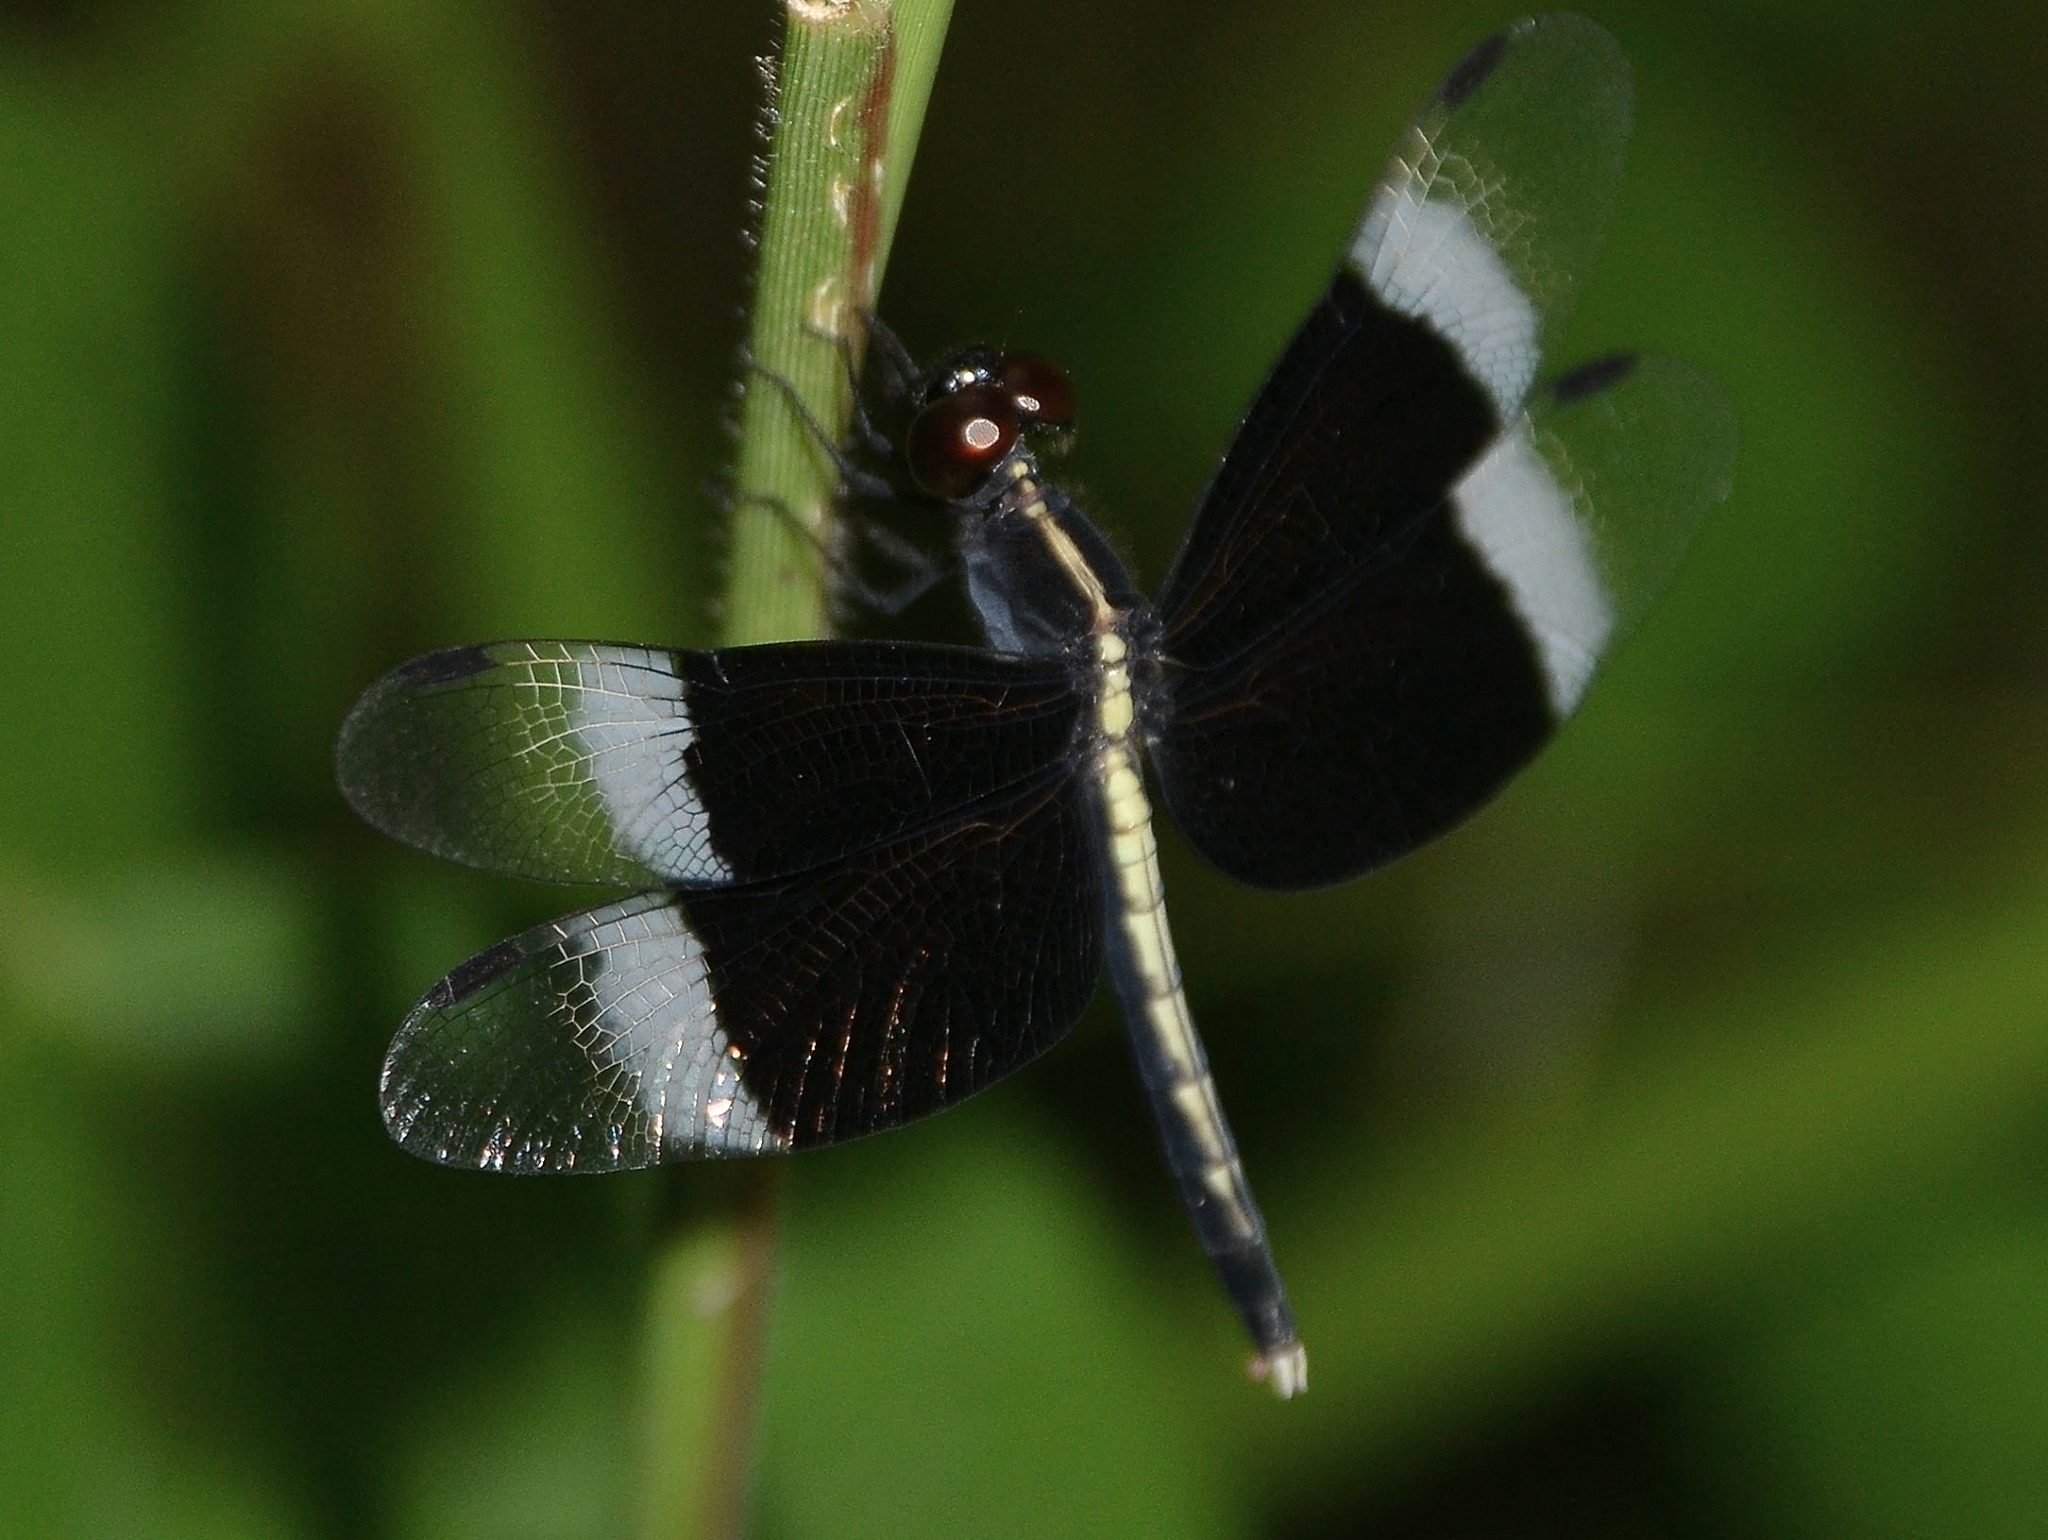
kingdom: Animalia
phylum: Arthropoda
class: Insecta
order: Odonata
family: Libellulidae
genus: Neurothemis
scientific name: Neurothemis tullia
